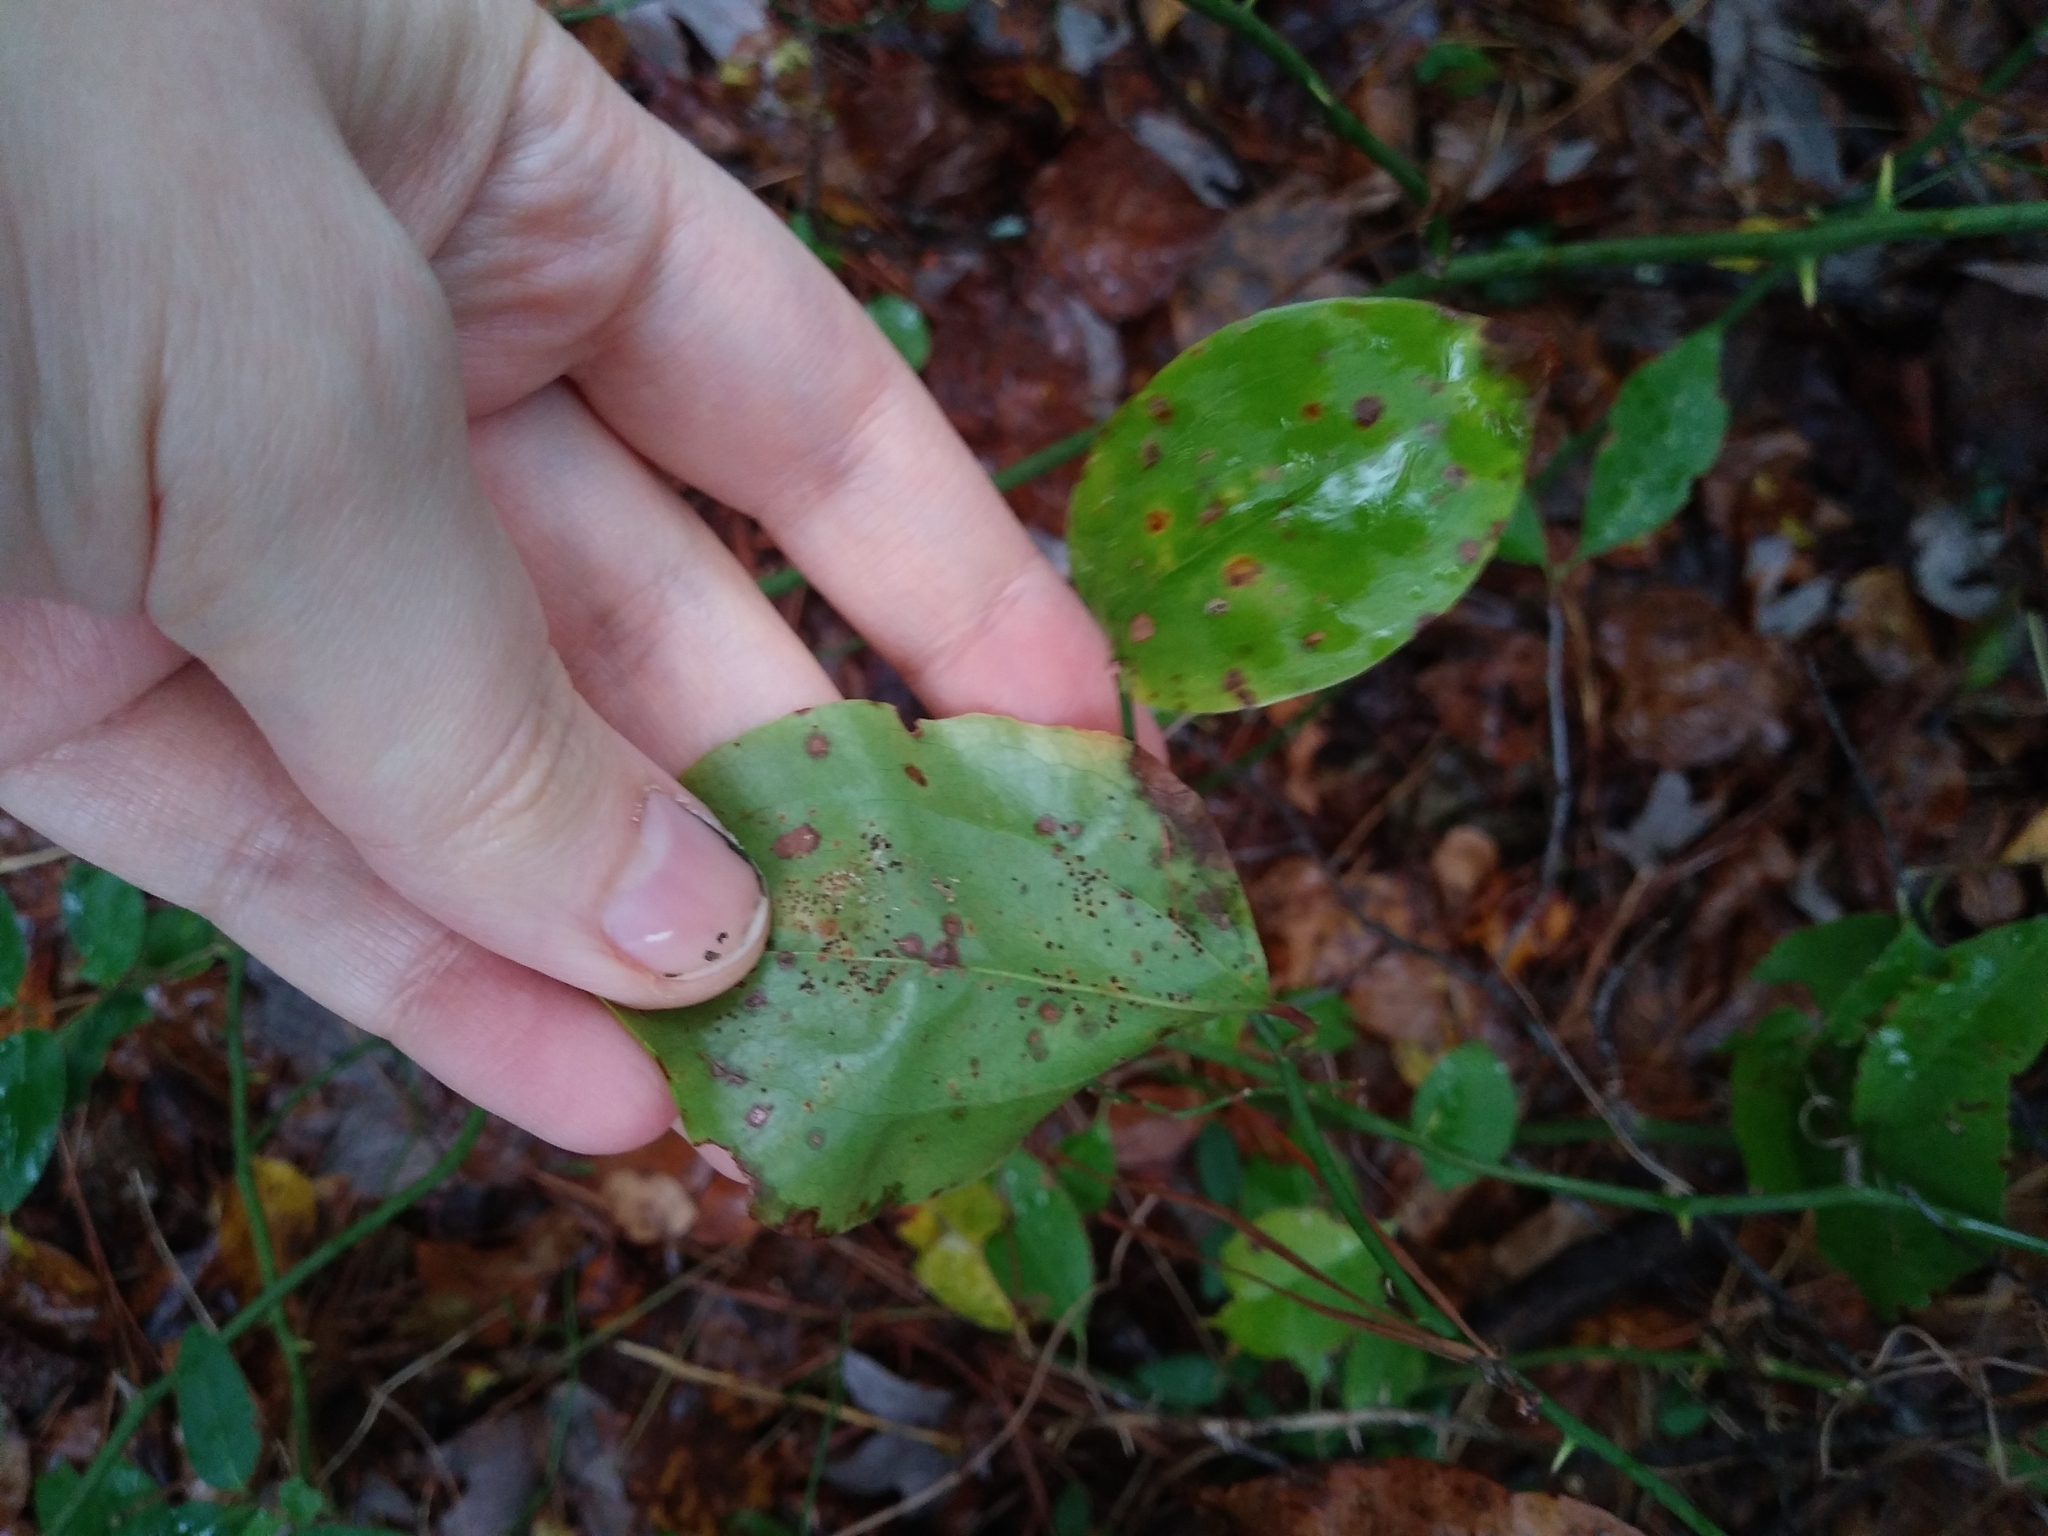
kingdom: Plantae
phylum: Tracheophyta
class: Liliopsida
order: Liliales
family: Smilacaceae
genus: Smilax
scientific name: Smilax rotundifolia
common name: Bullbriar
